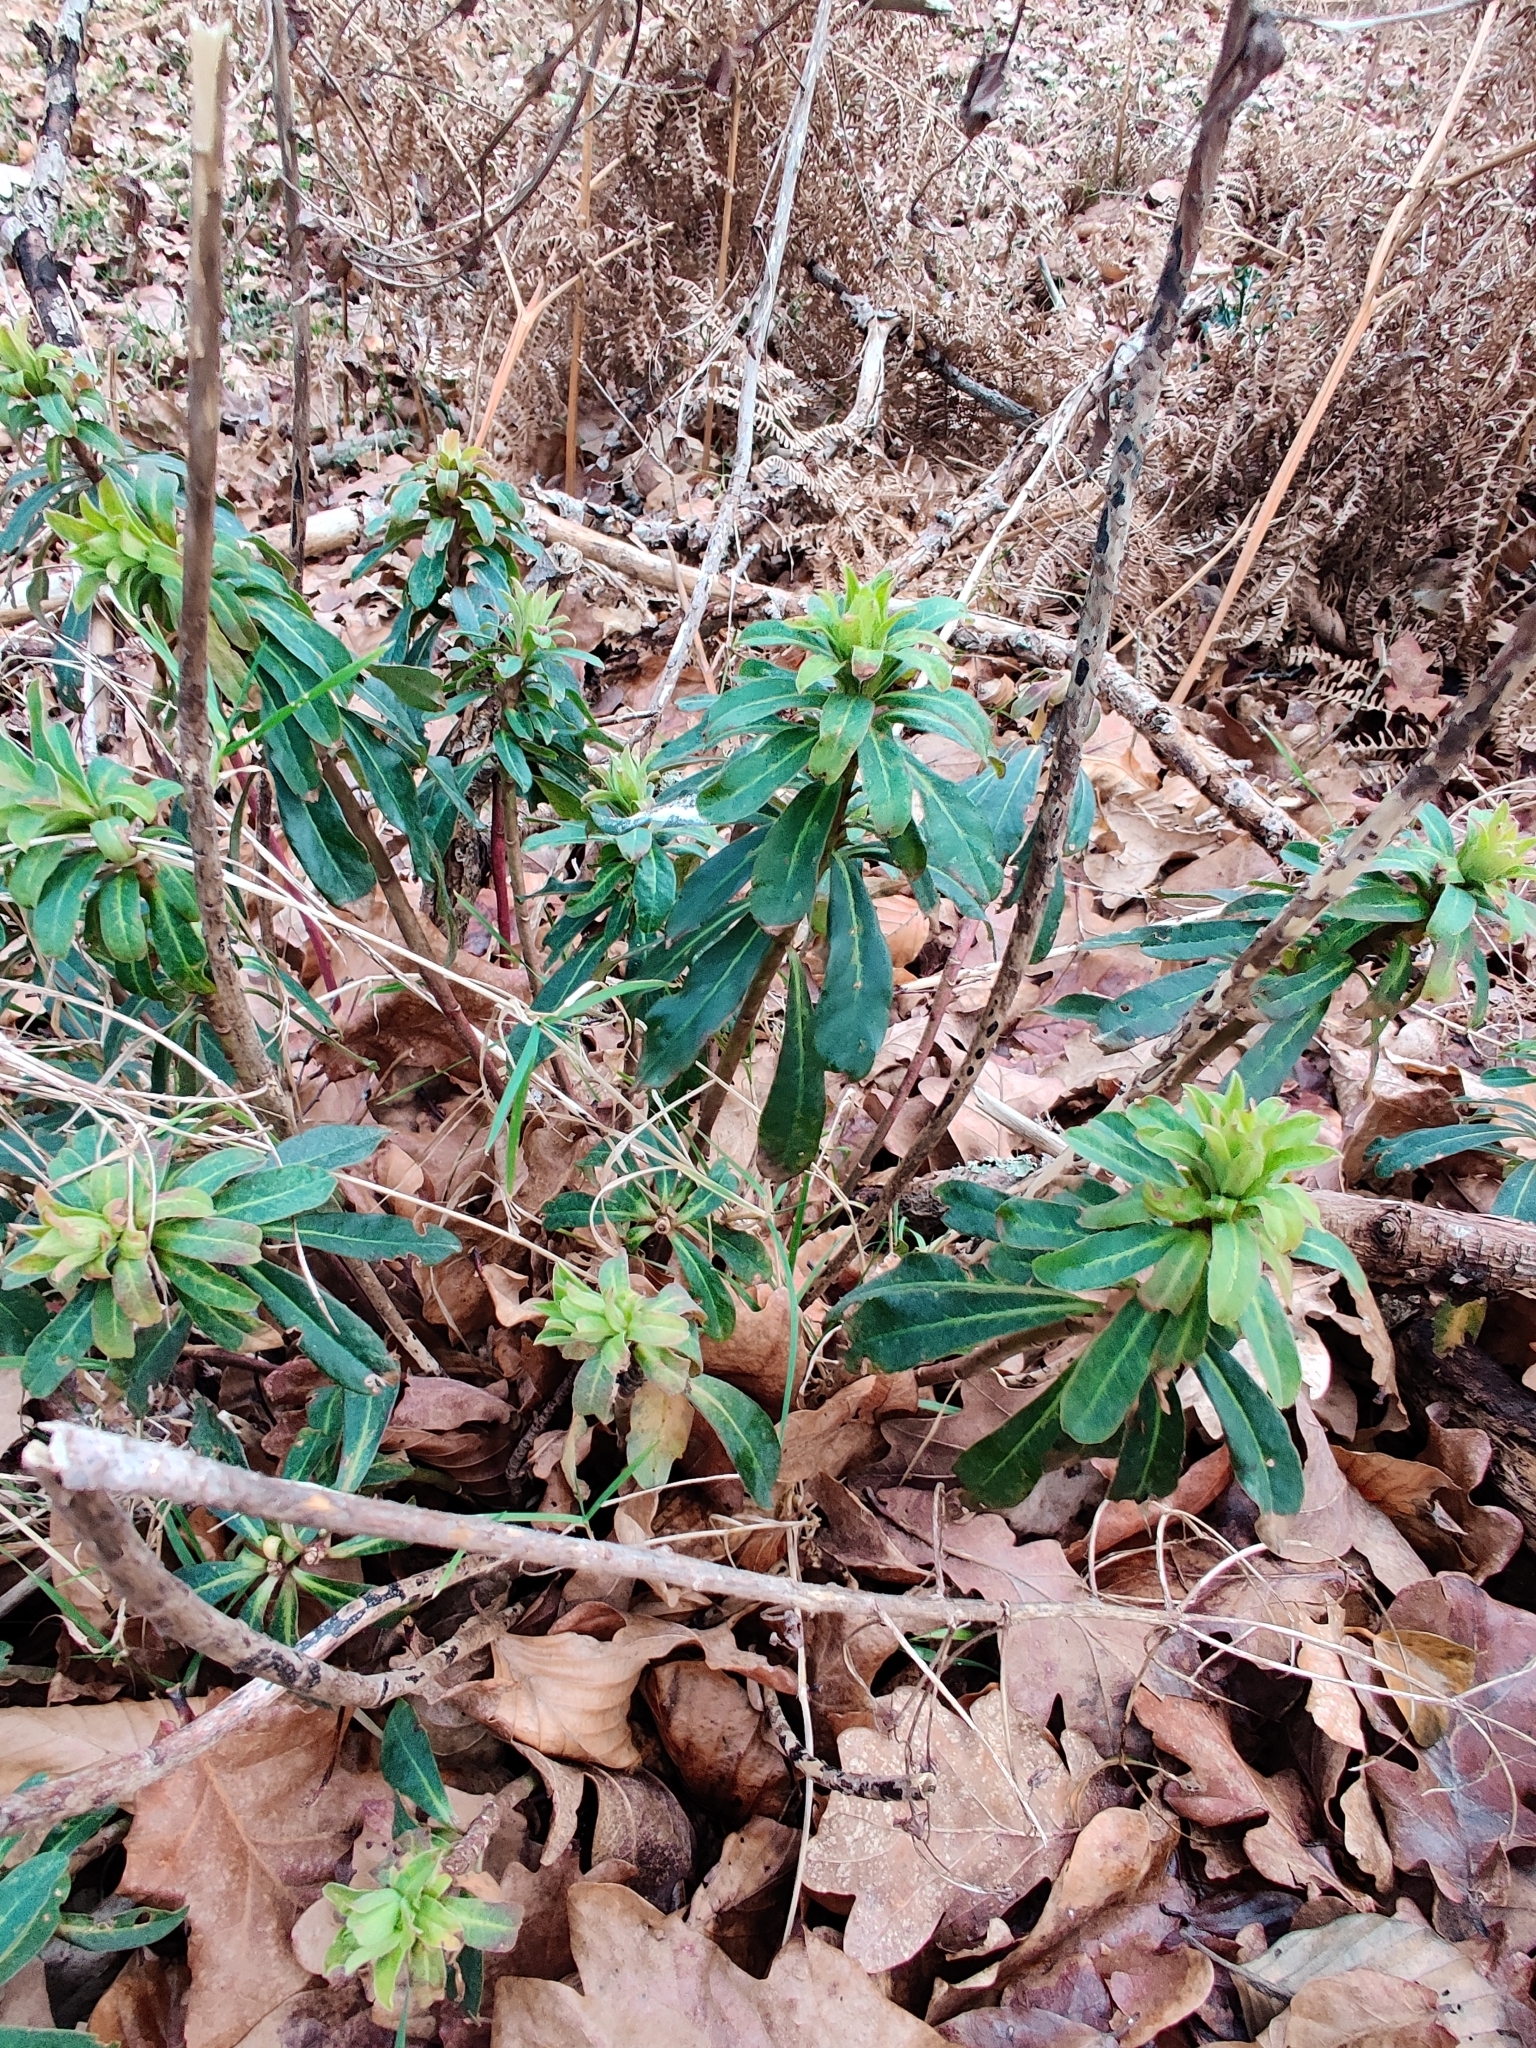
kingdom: Plantae
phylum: Tracheophyta
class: Magnoliopsida
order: Malpighiales
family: Euphorbiaceae
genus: Euphorbia
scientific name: Euphorbia amygdaloides
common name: Wood spurge
